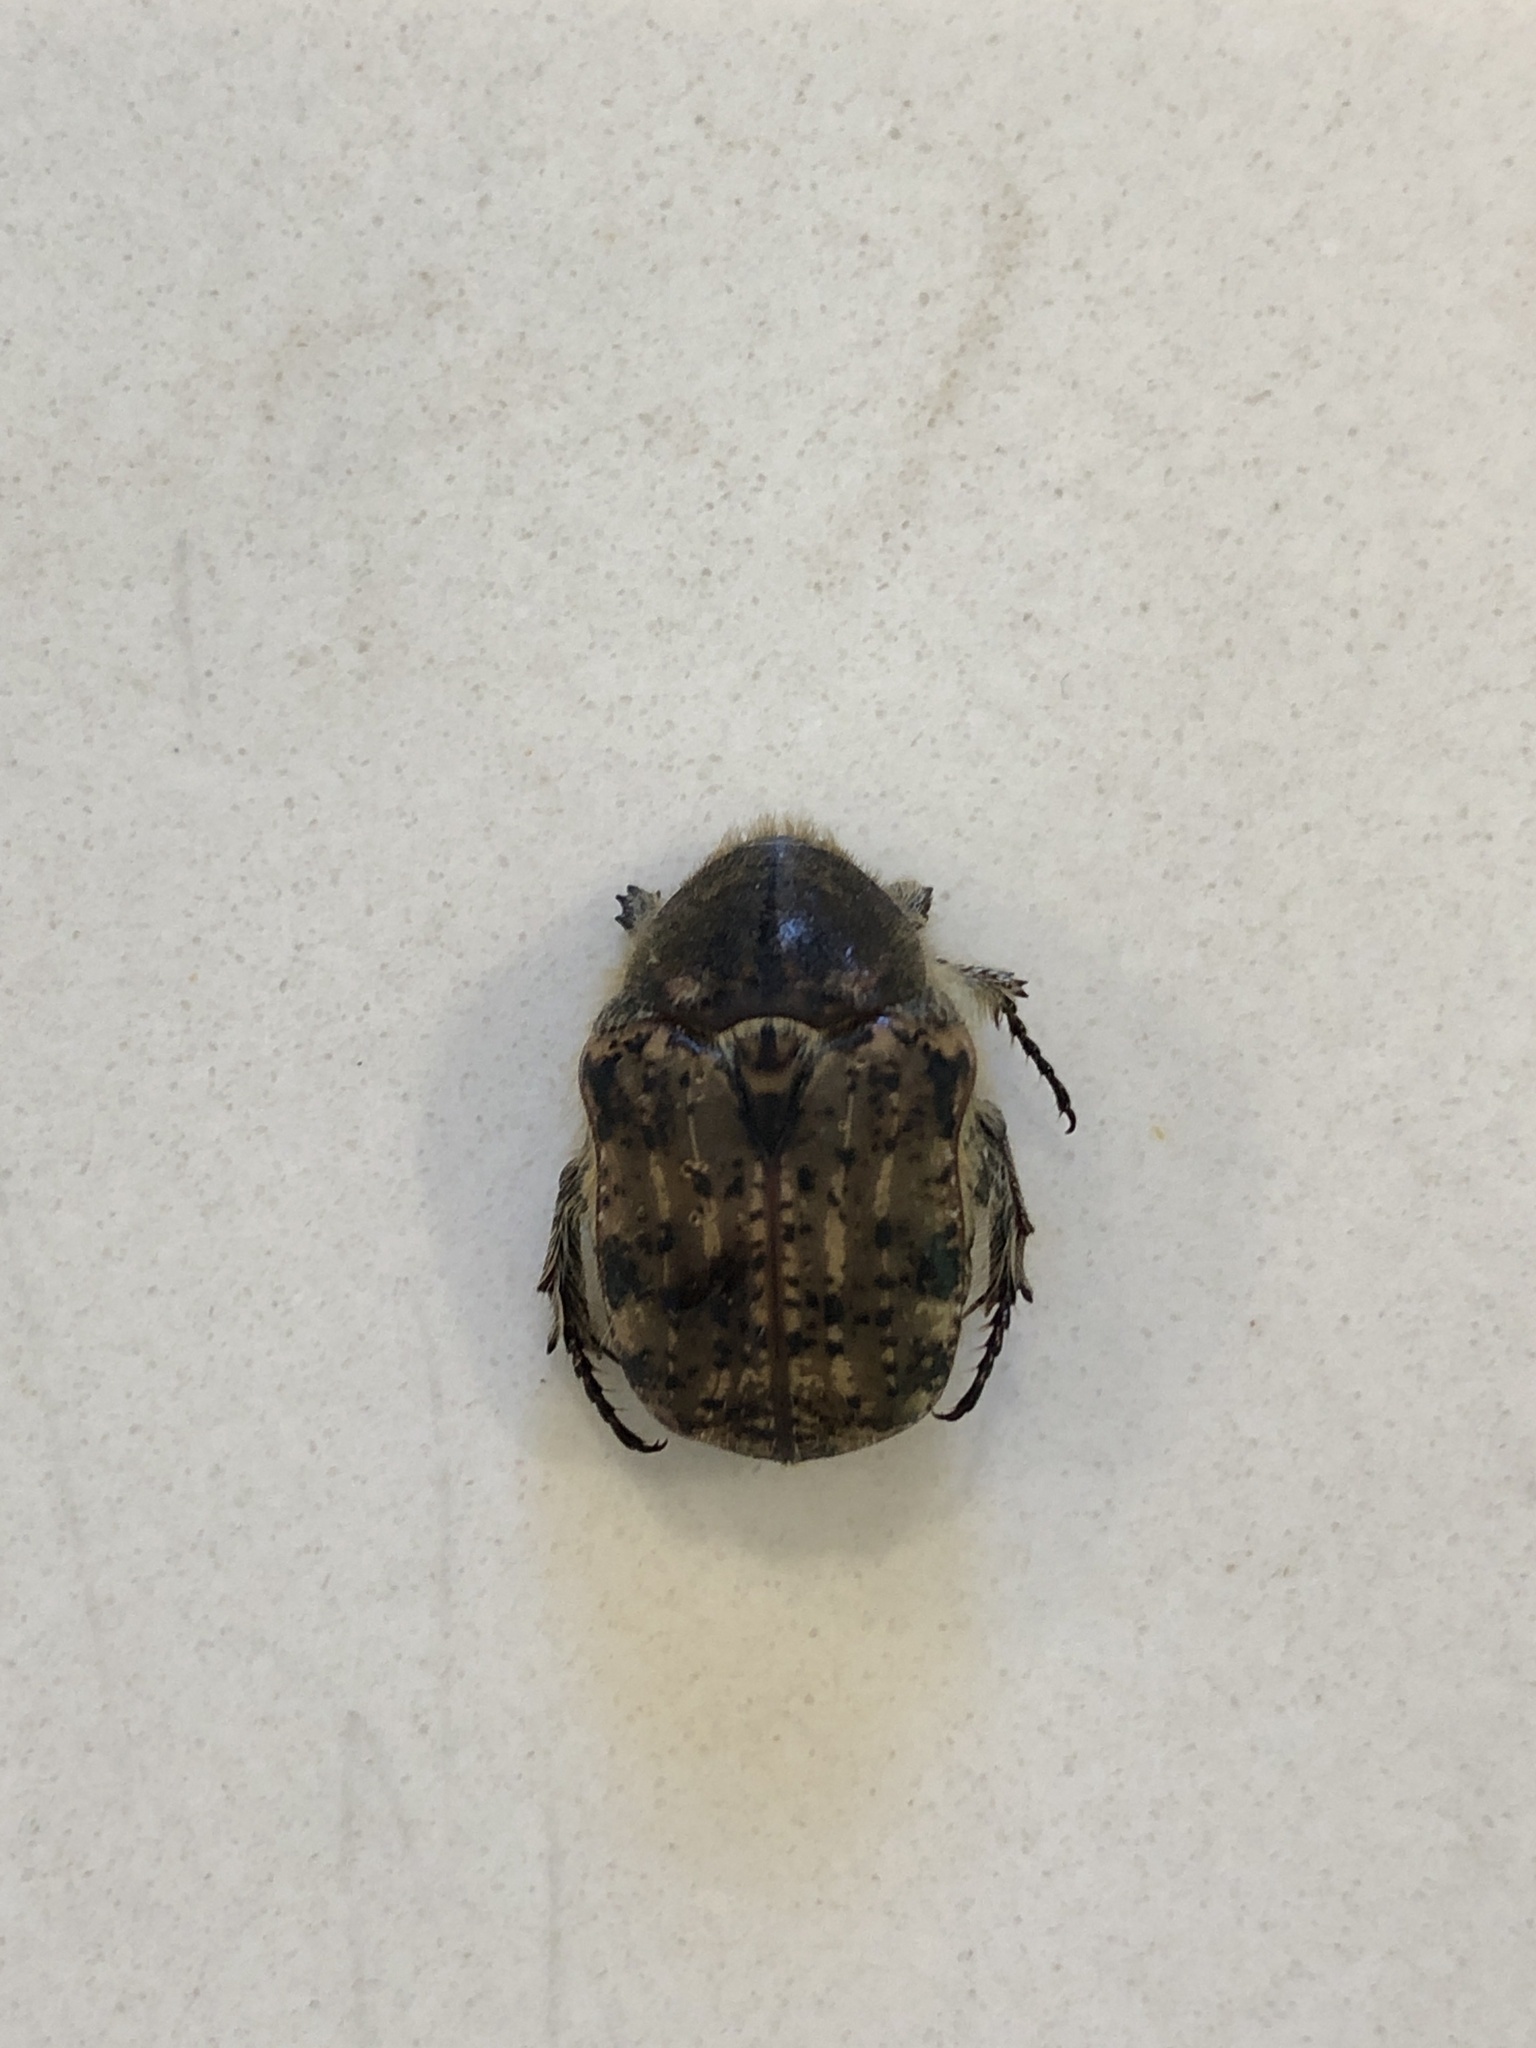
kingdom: Animalia
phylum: Arthropoda
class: Insecta
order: Coleoptera
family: Scarabaeidae
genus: Euphoria
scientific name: Euphoria inda
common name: Bumble flower beetle
